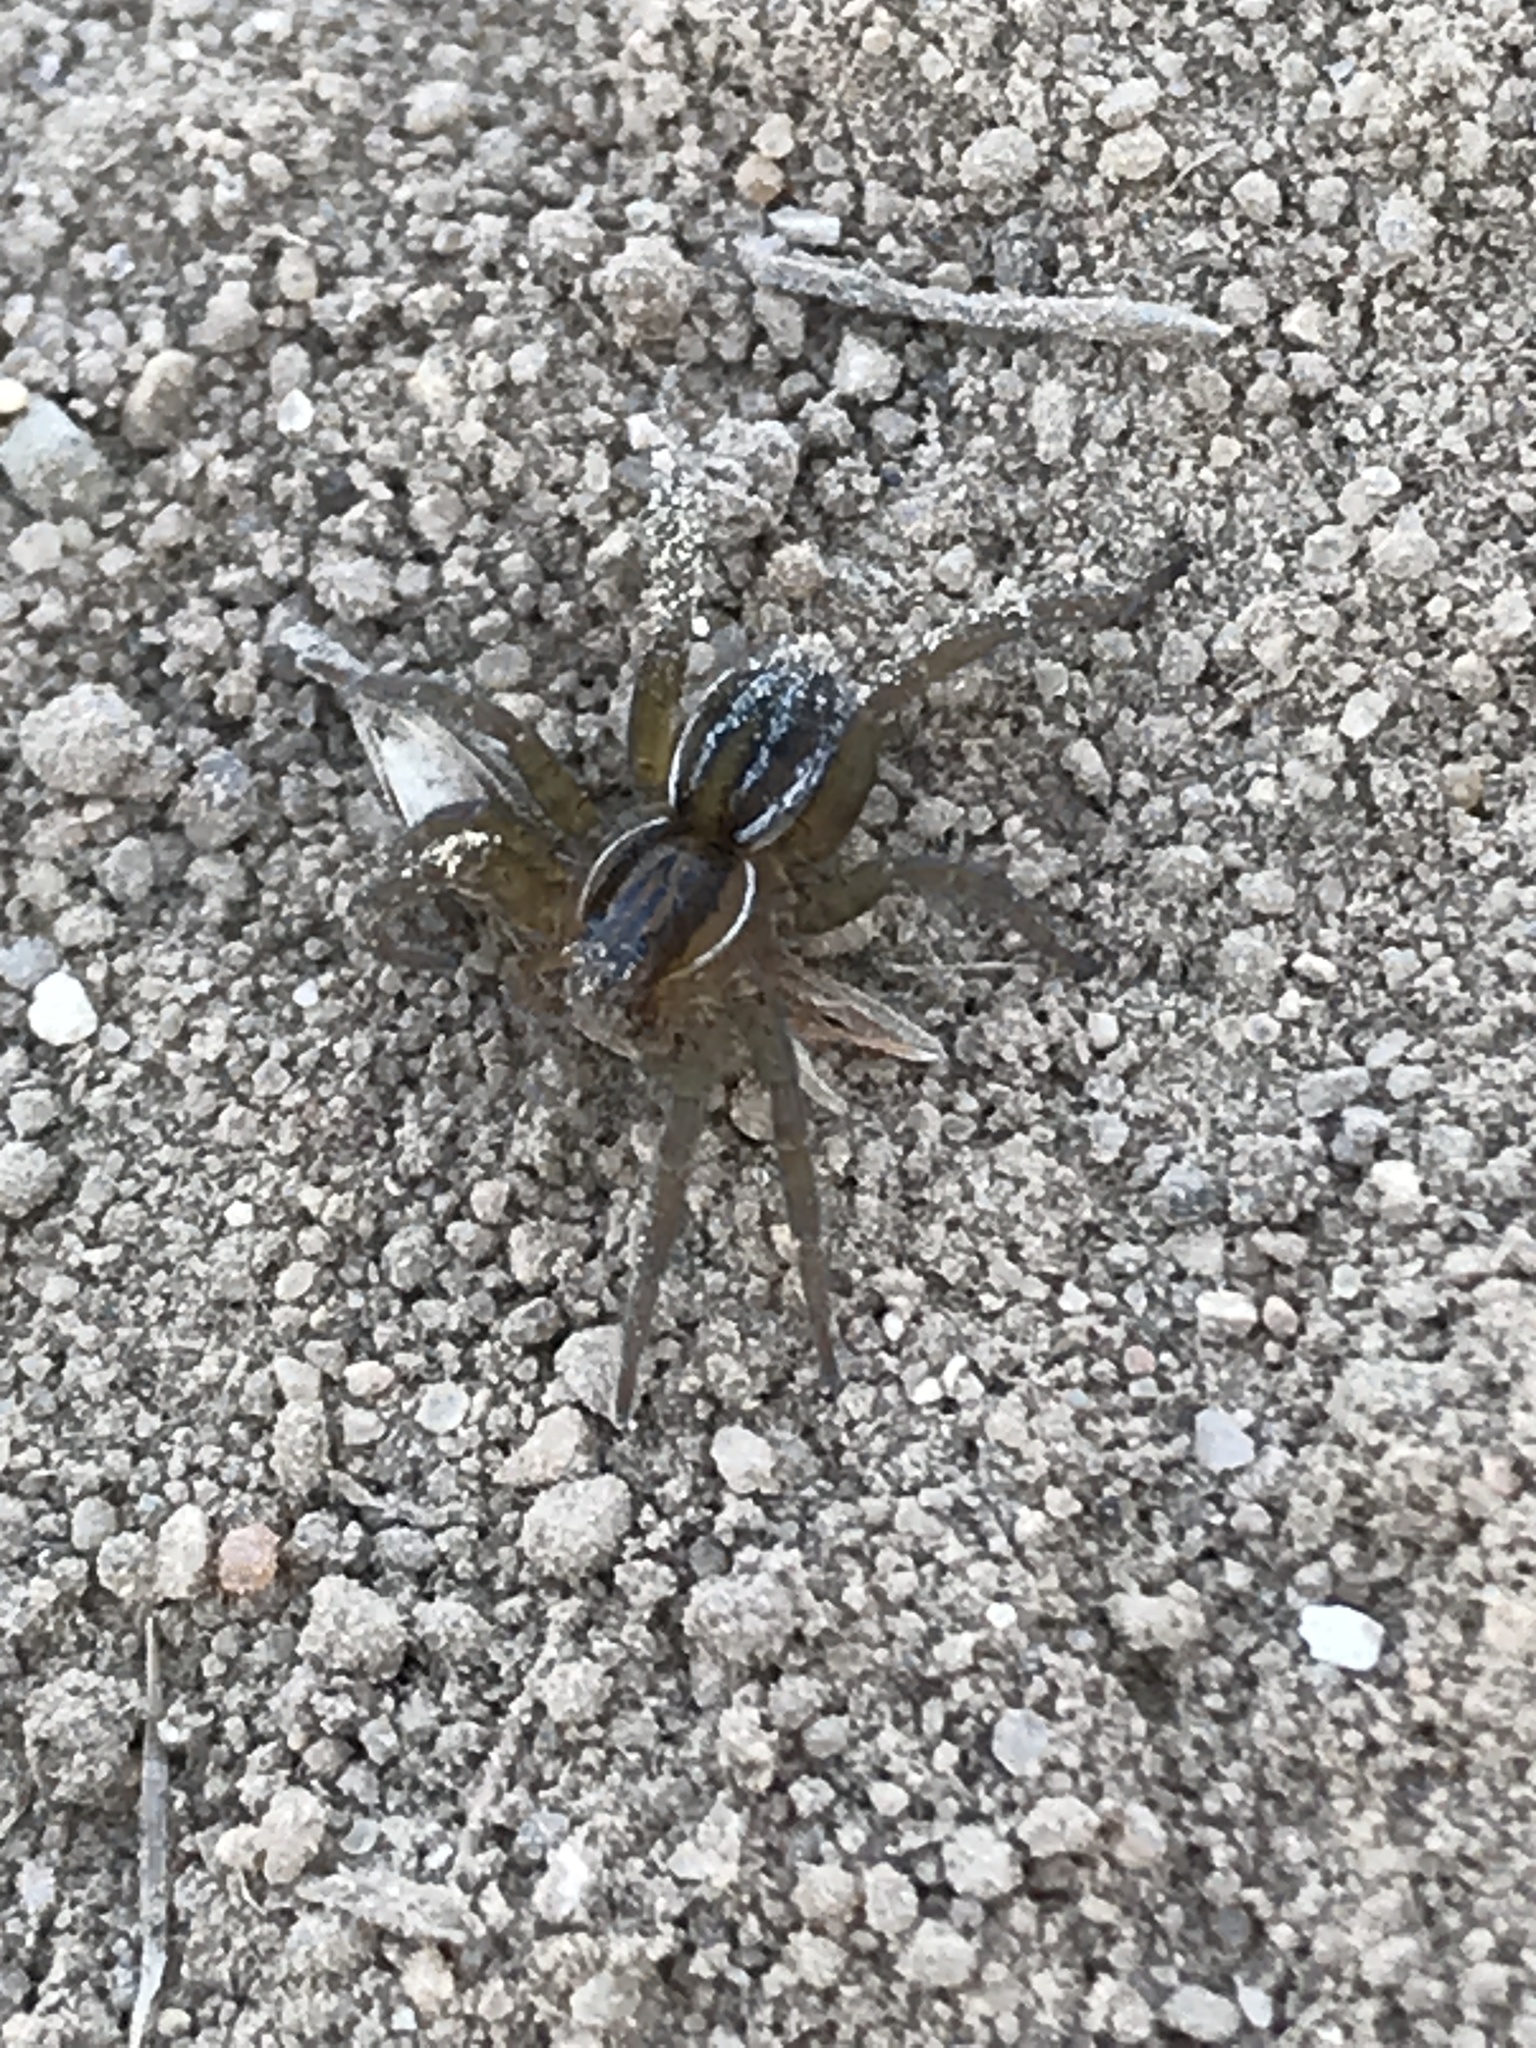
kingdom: Animalia
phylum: Arthropoda
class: Arachnida
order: Araneae
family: Lycosidae
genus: Pirata
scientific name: Pirata piraticus
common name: Pirate otter spider
